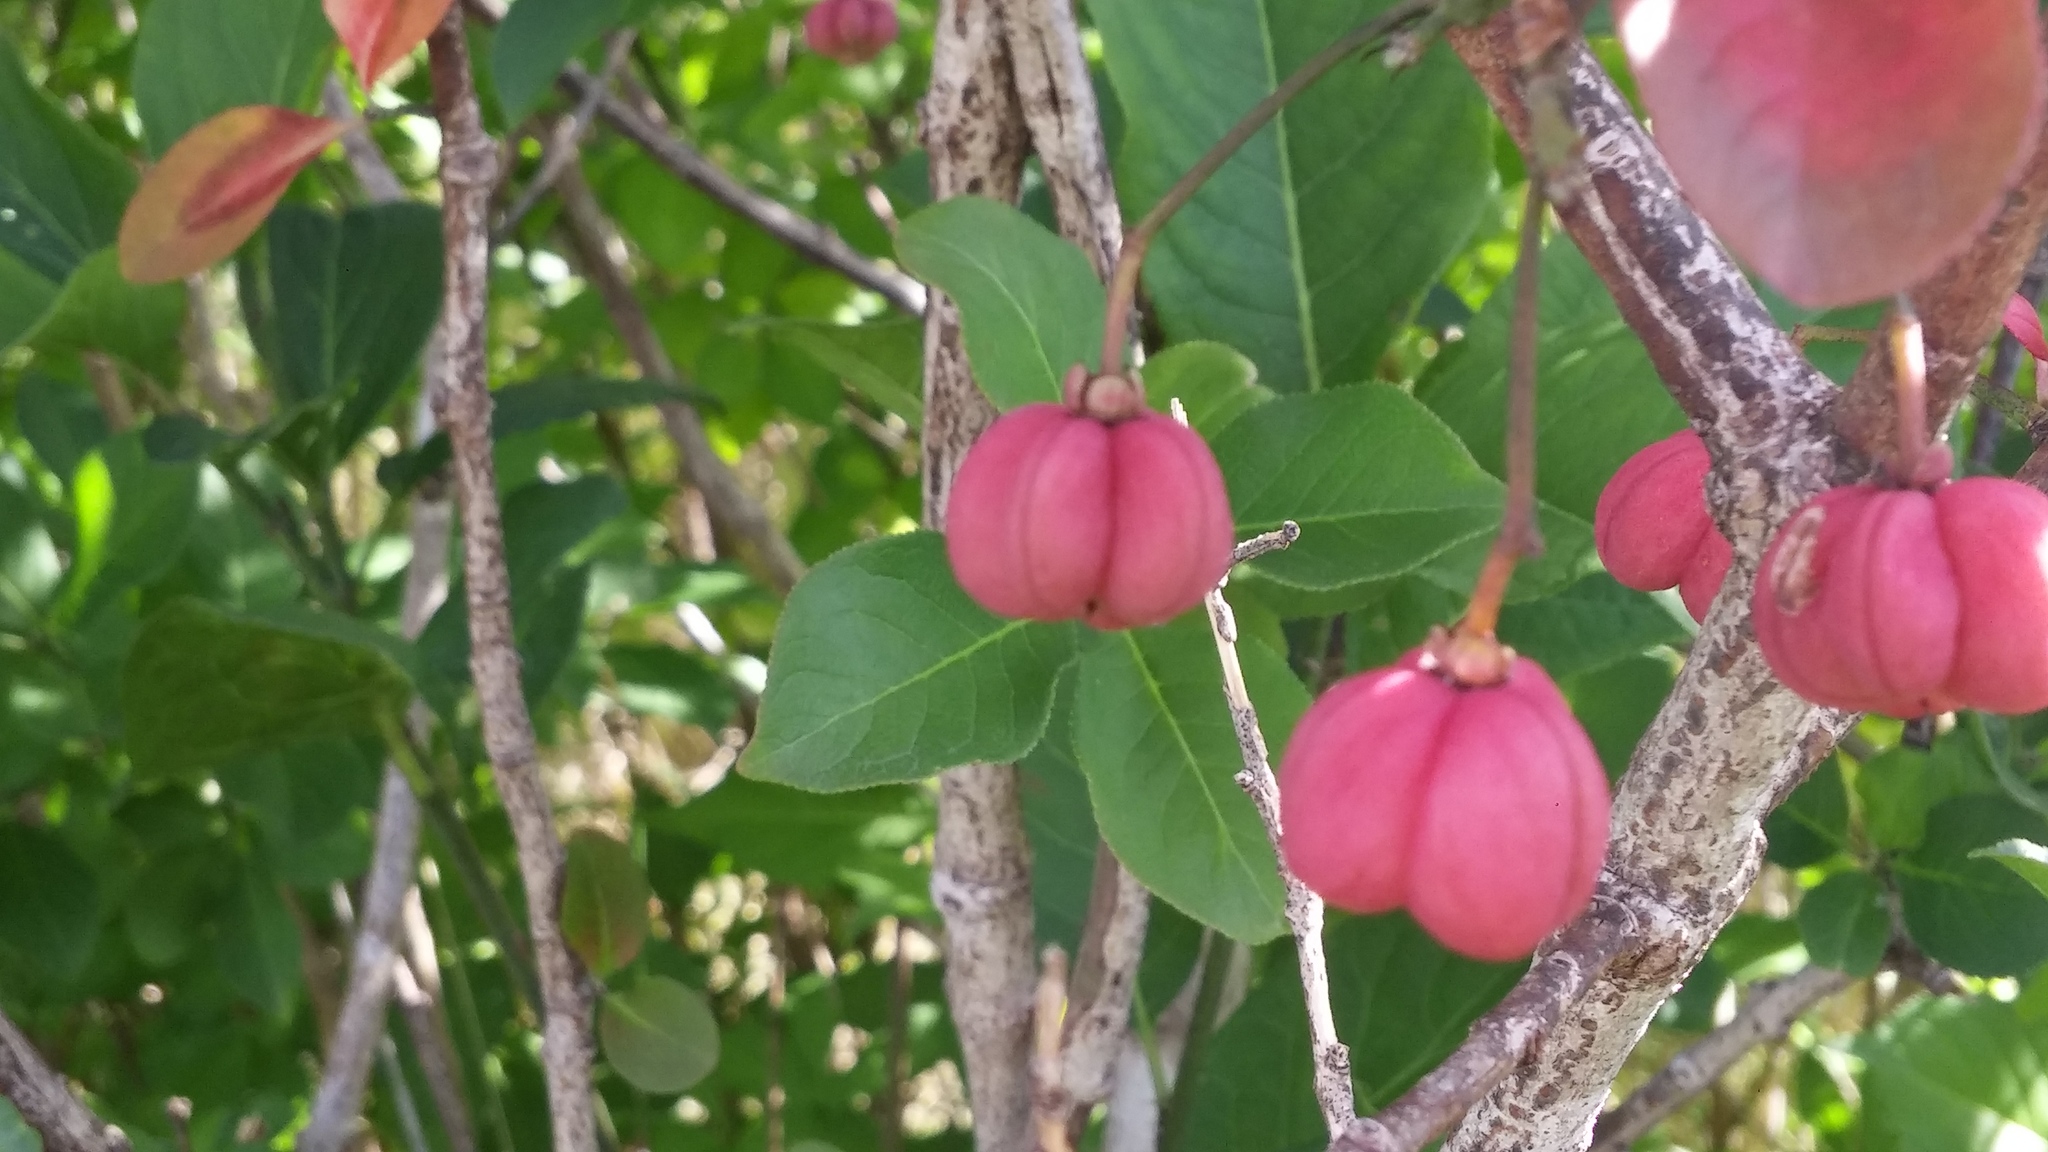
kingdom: Plantae
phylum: Tracheophyta
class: Magnoliopsida
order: Celastrales
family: Celastraceae
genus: Euonymus
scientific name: Euonymus europaeus
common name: Spindle
